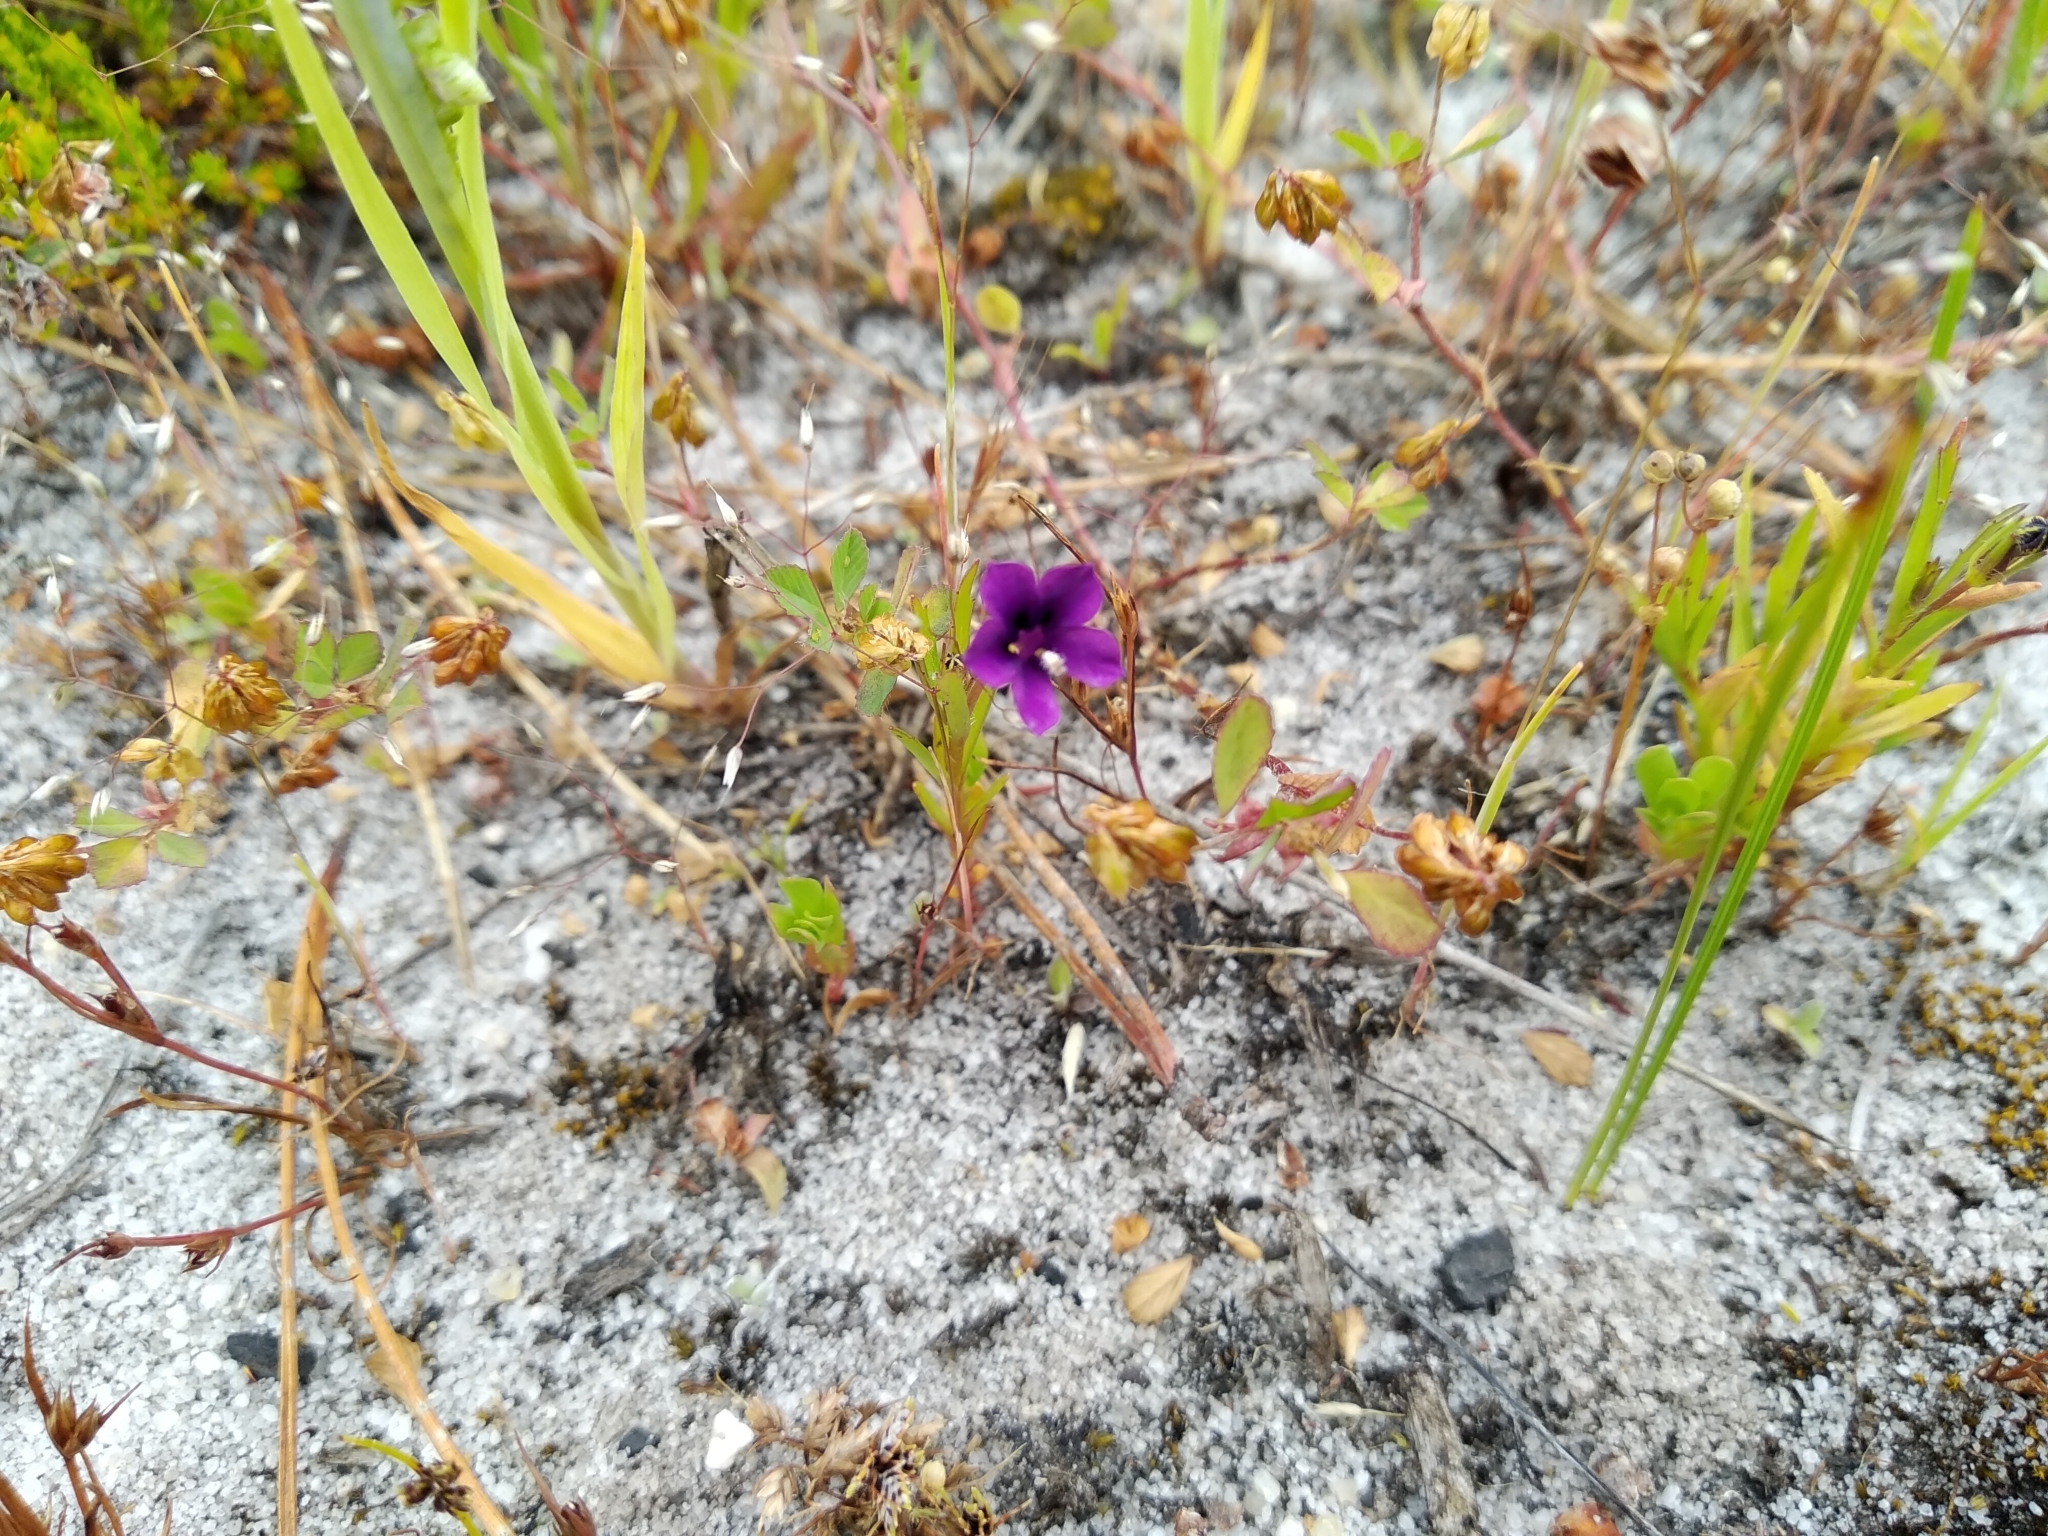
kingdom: Plantae
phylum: Tracheophyta
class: Magnoliopsida
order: Asterales
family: Campanulaceae
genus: Monopsis
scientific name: Monopsis debilis
